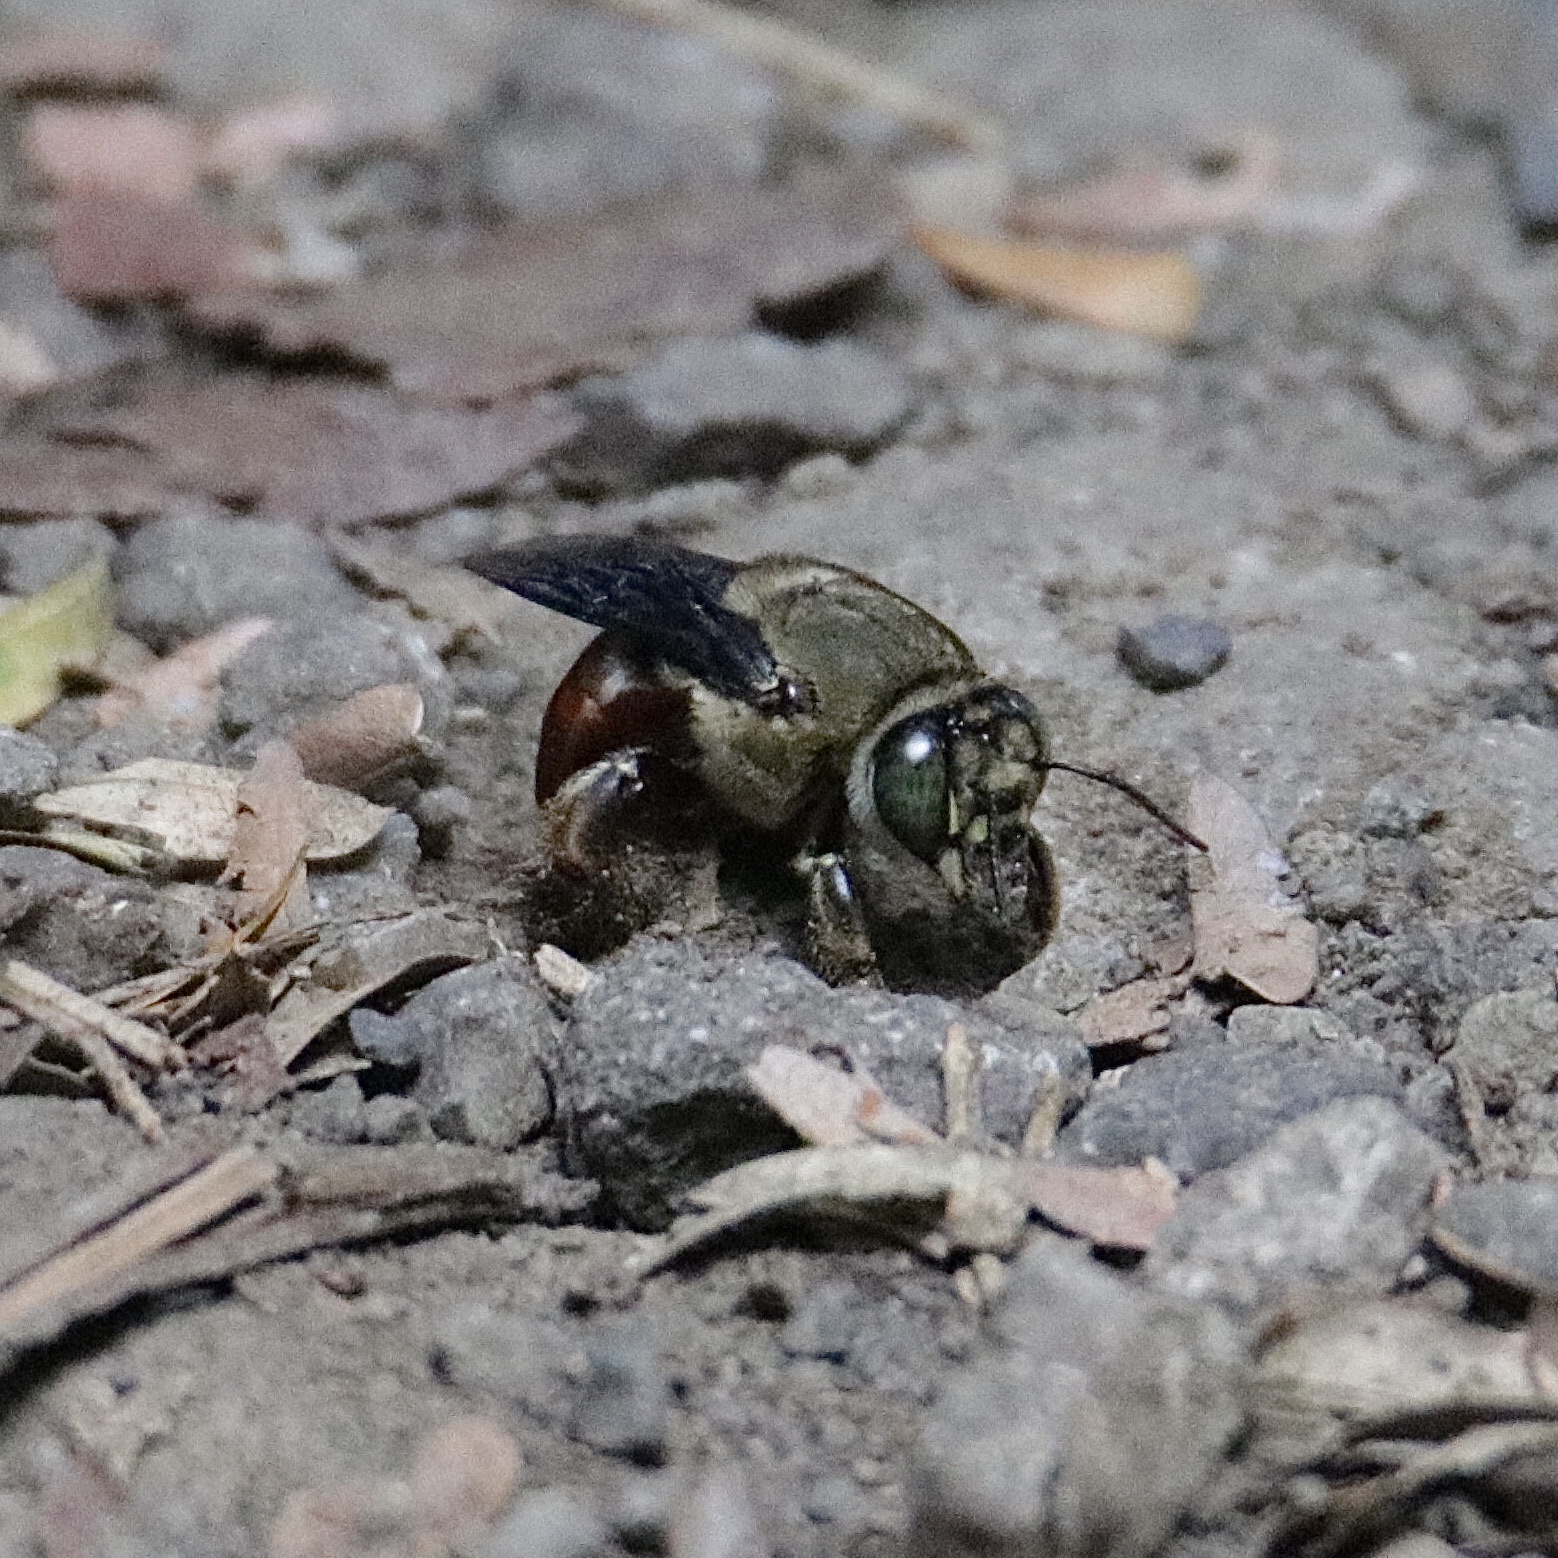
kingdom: Animalia
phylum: Arthropoda
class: Insecta
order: Hymenoptera
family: Apidae
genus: Centris
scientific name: Centris vittata
